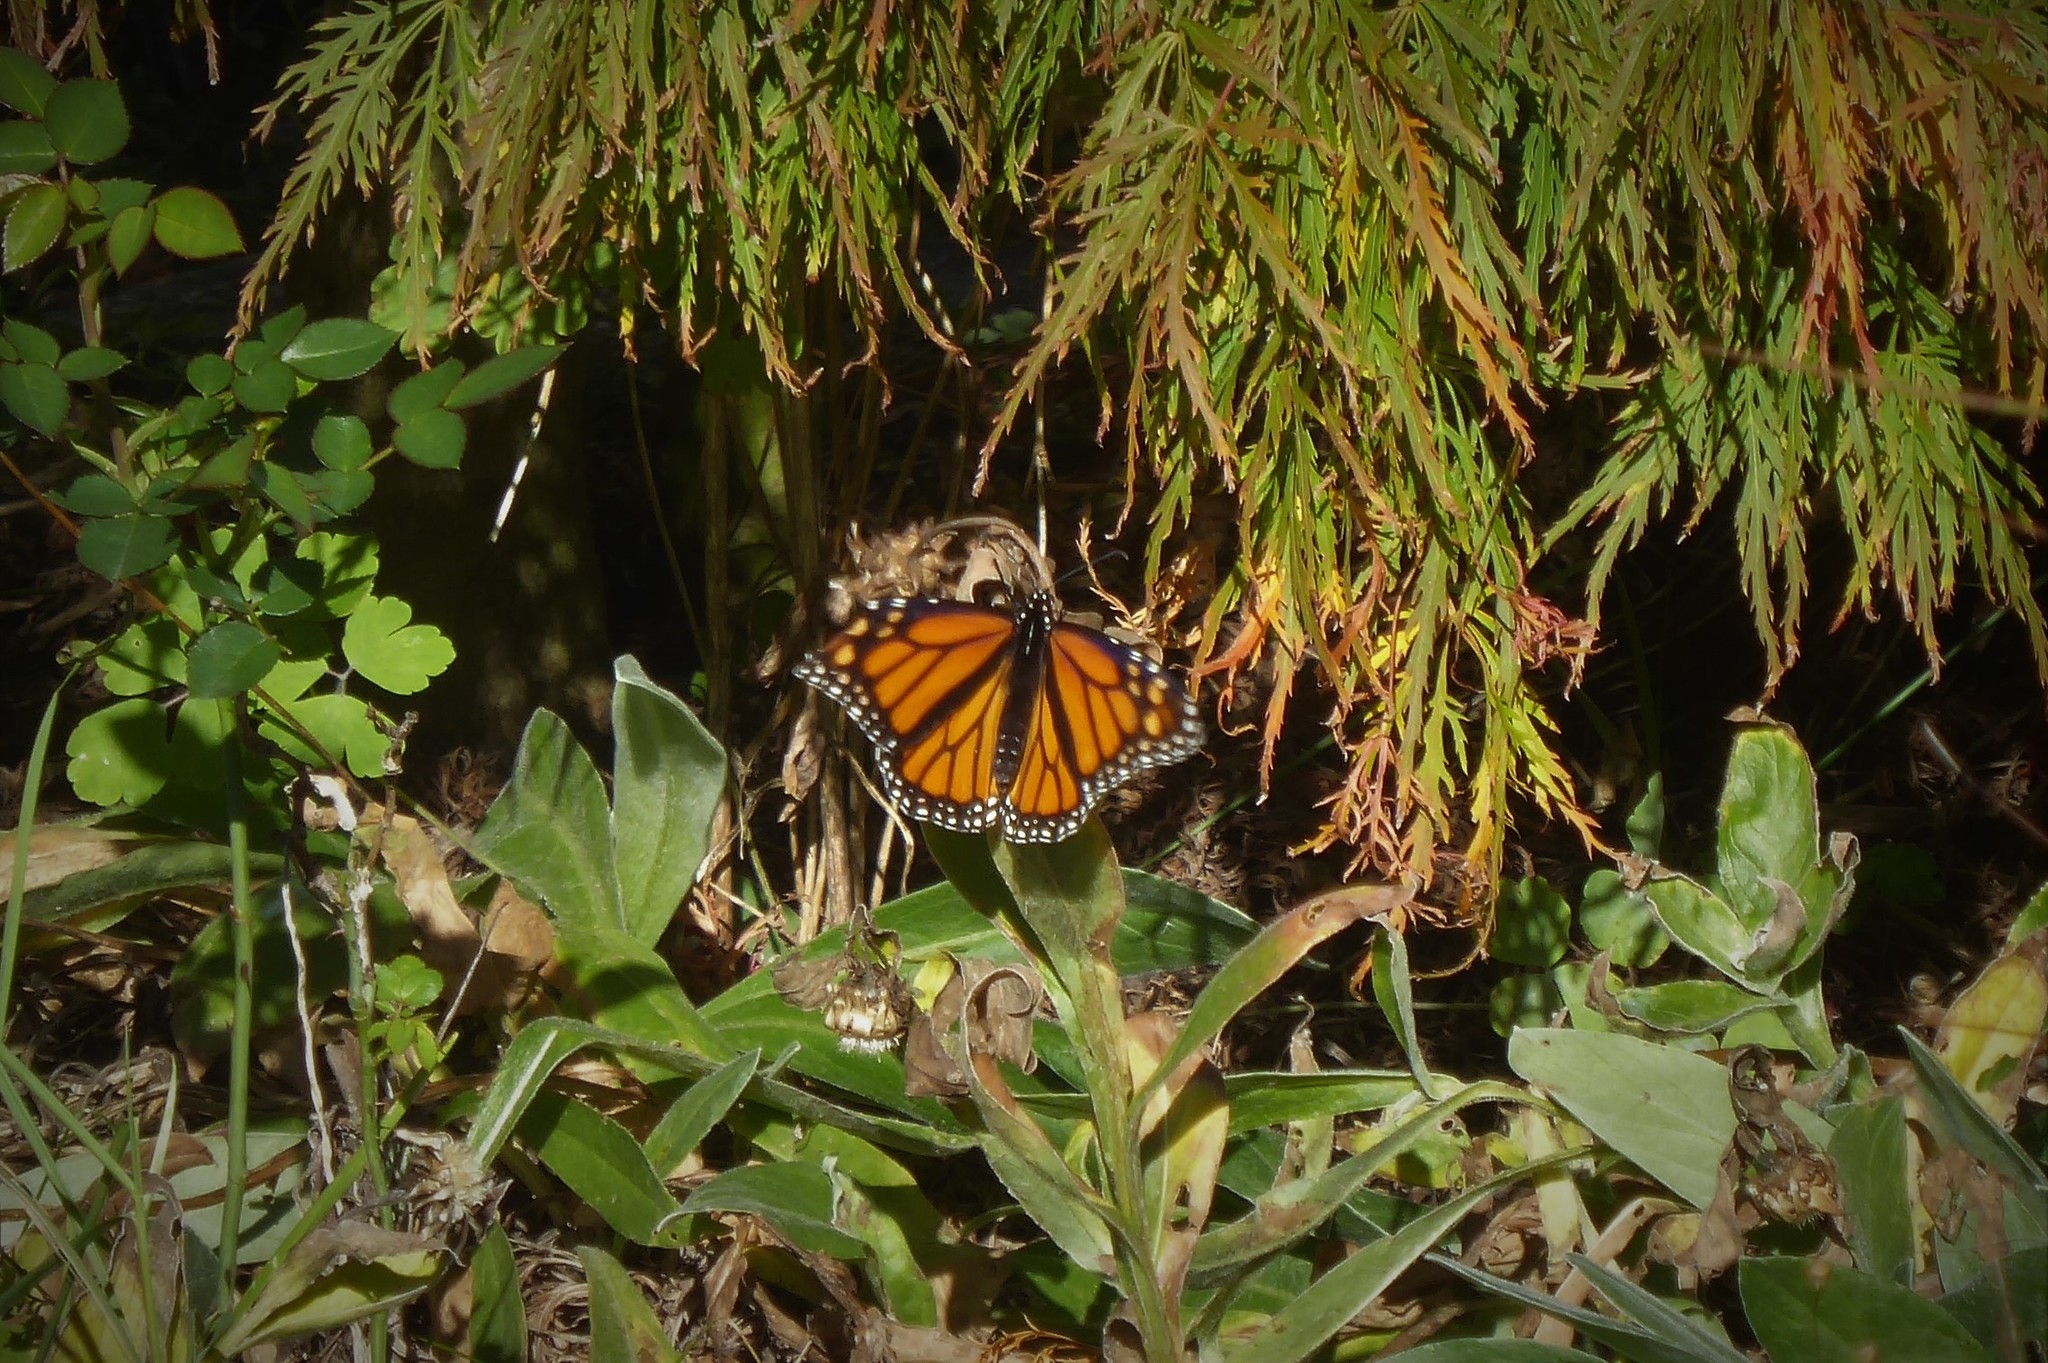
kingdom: Animalia
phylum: Arthropoda
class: Insecta
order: Lepidoptera
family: Nymphalidae
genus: Danaus
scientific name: Danaus plexippus
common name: Monarch
